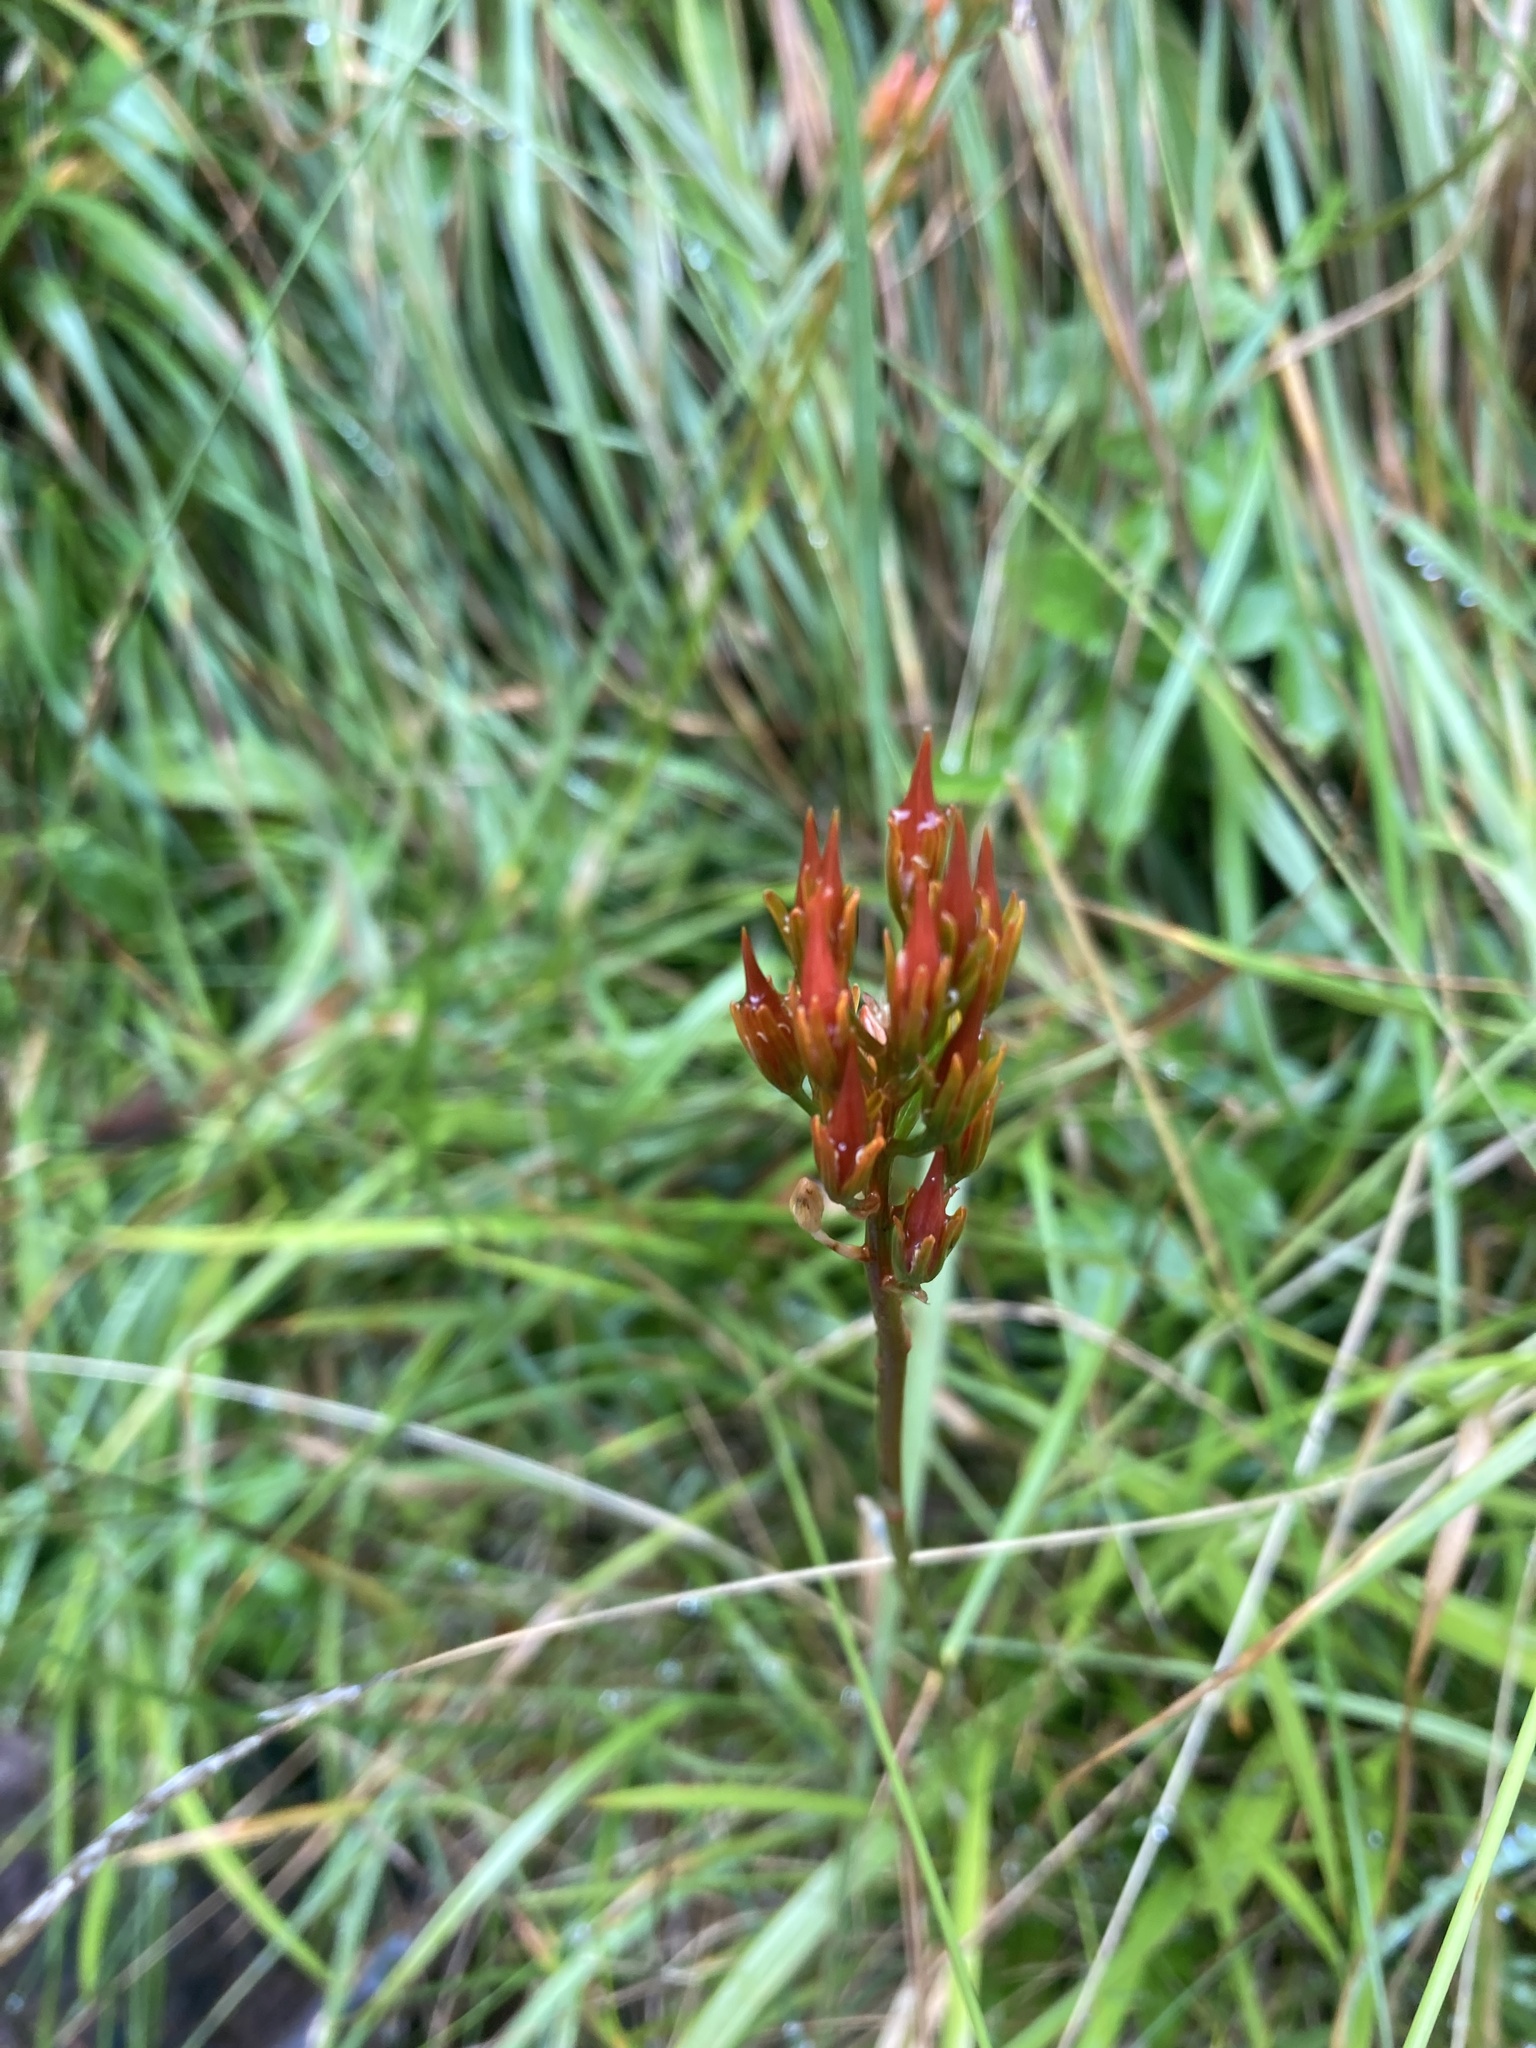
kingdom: Plantae
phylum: Tracheophyta
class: Liliopsida
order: Dioscoreales
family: Nartheciaceae
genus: Narthecium
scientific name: Narthecium ossifragum
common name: Bog asphodel
